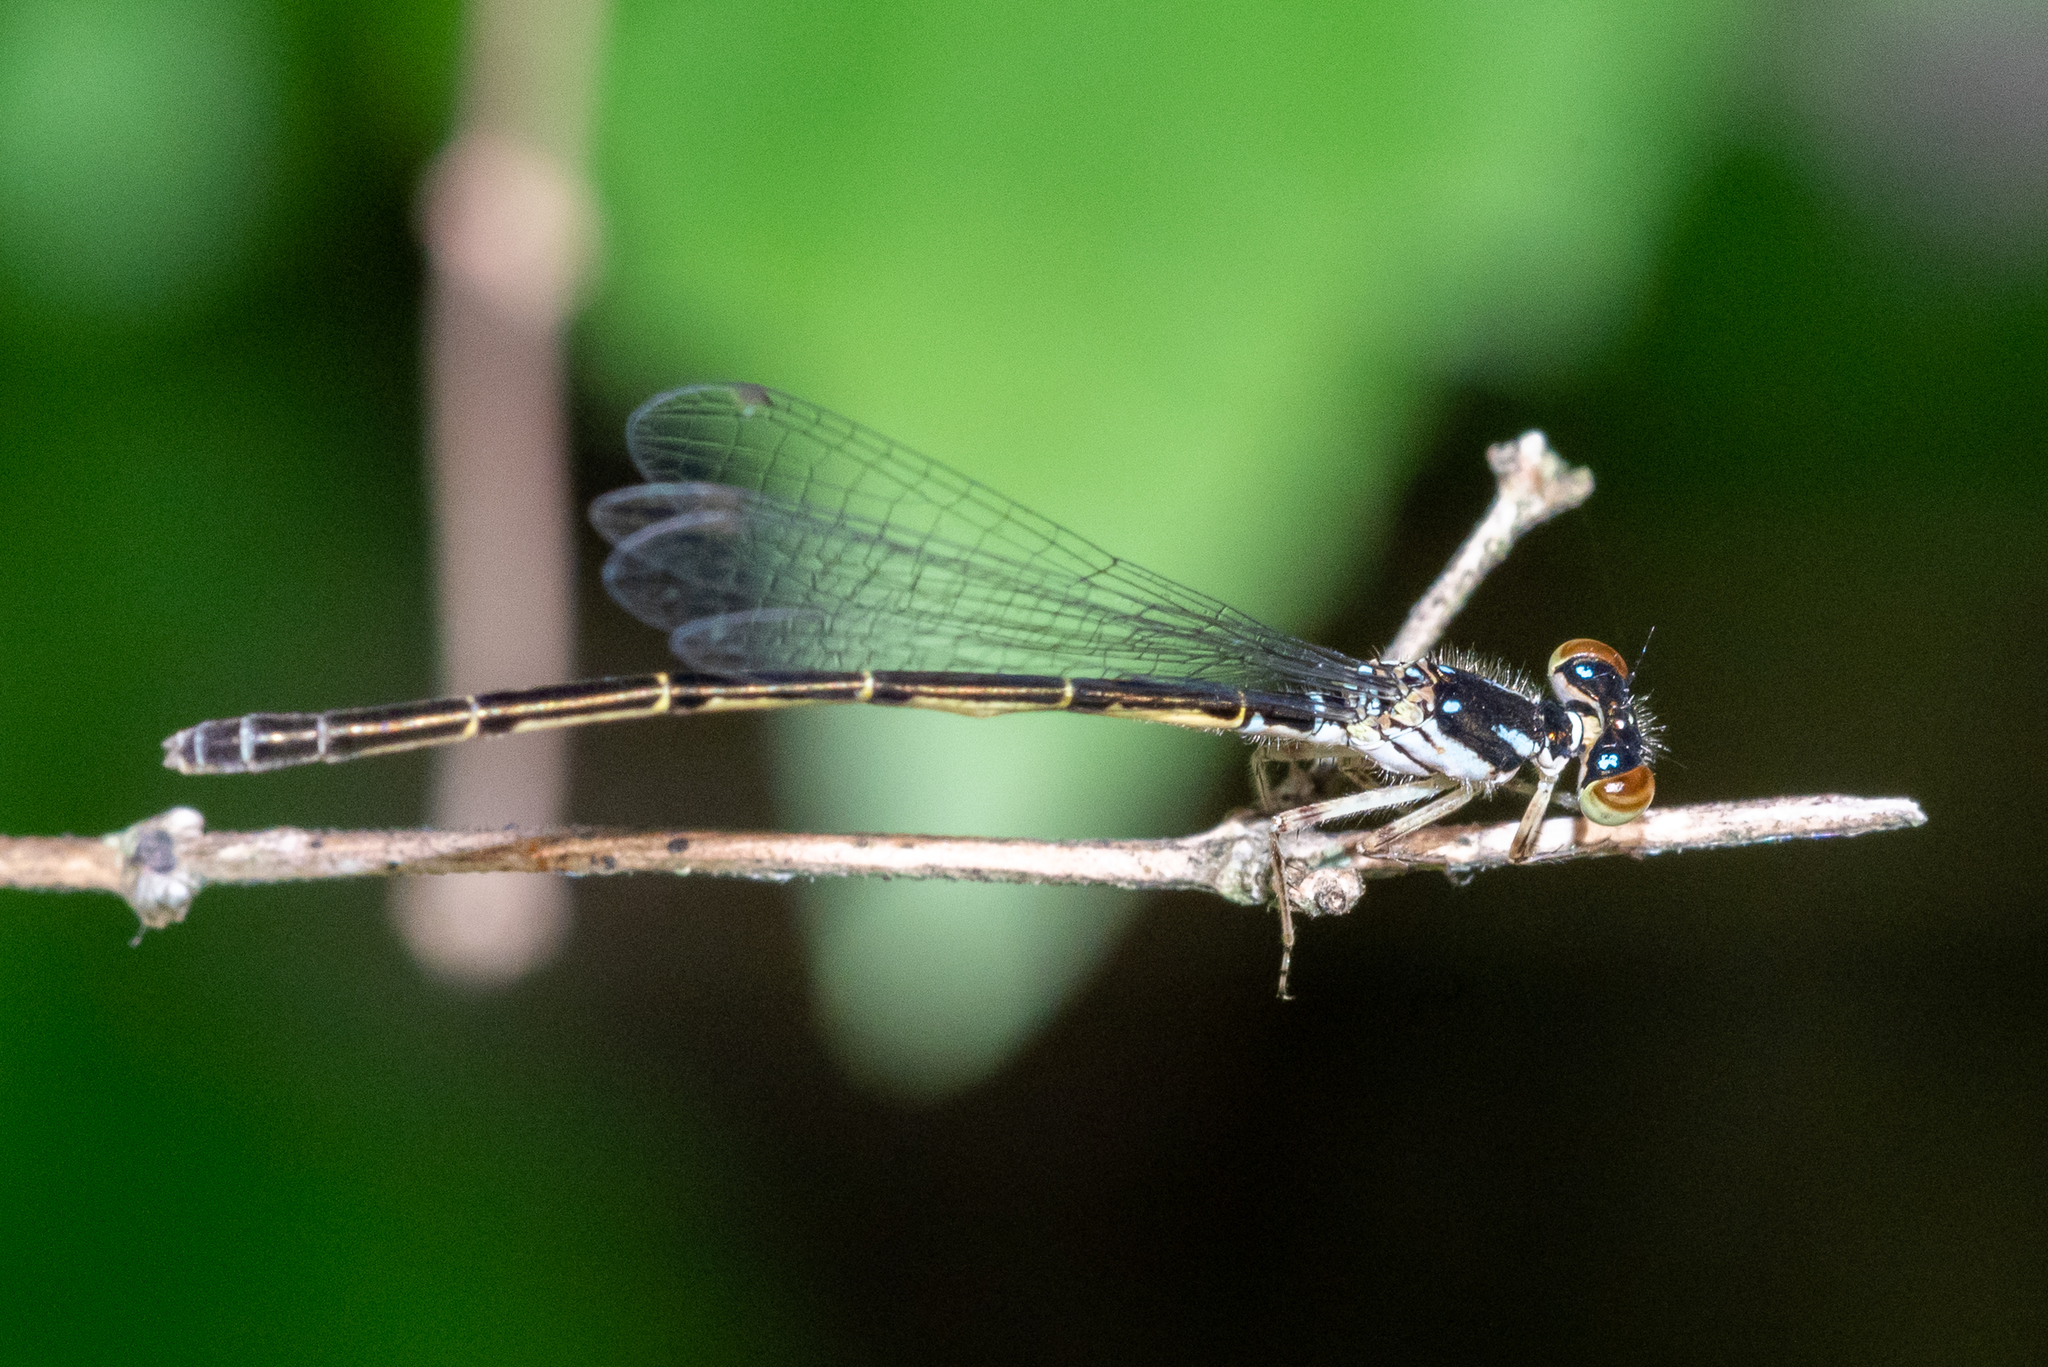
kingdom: Animalia
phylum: Arthropoda
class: Insecta
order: Odonata
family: Coenagrionidae
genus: Ischnura
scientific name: Ischnura posita
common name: Fragile forktail
